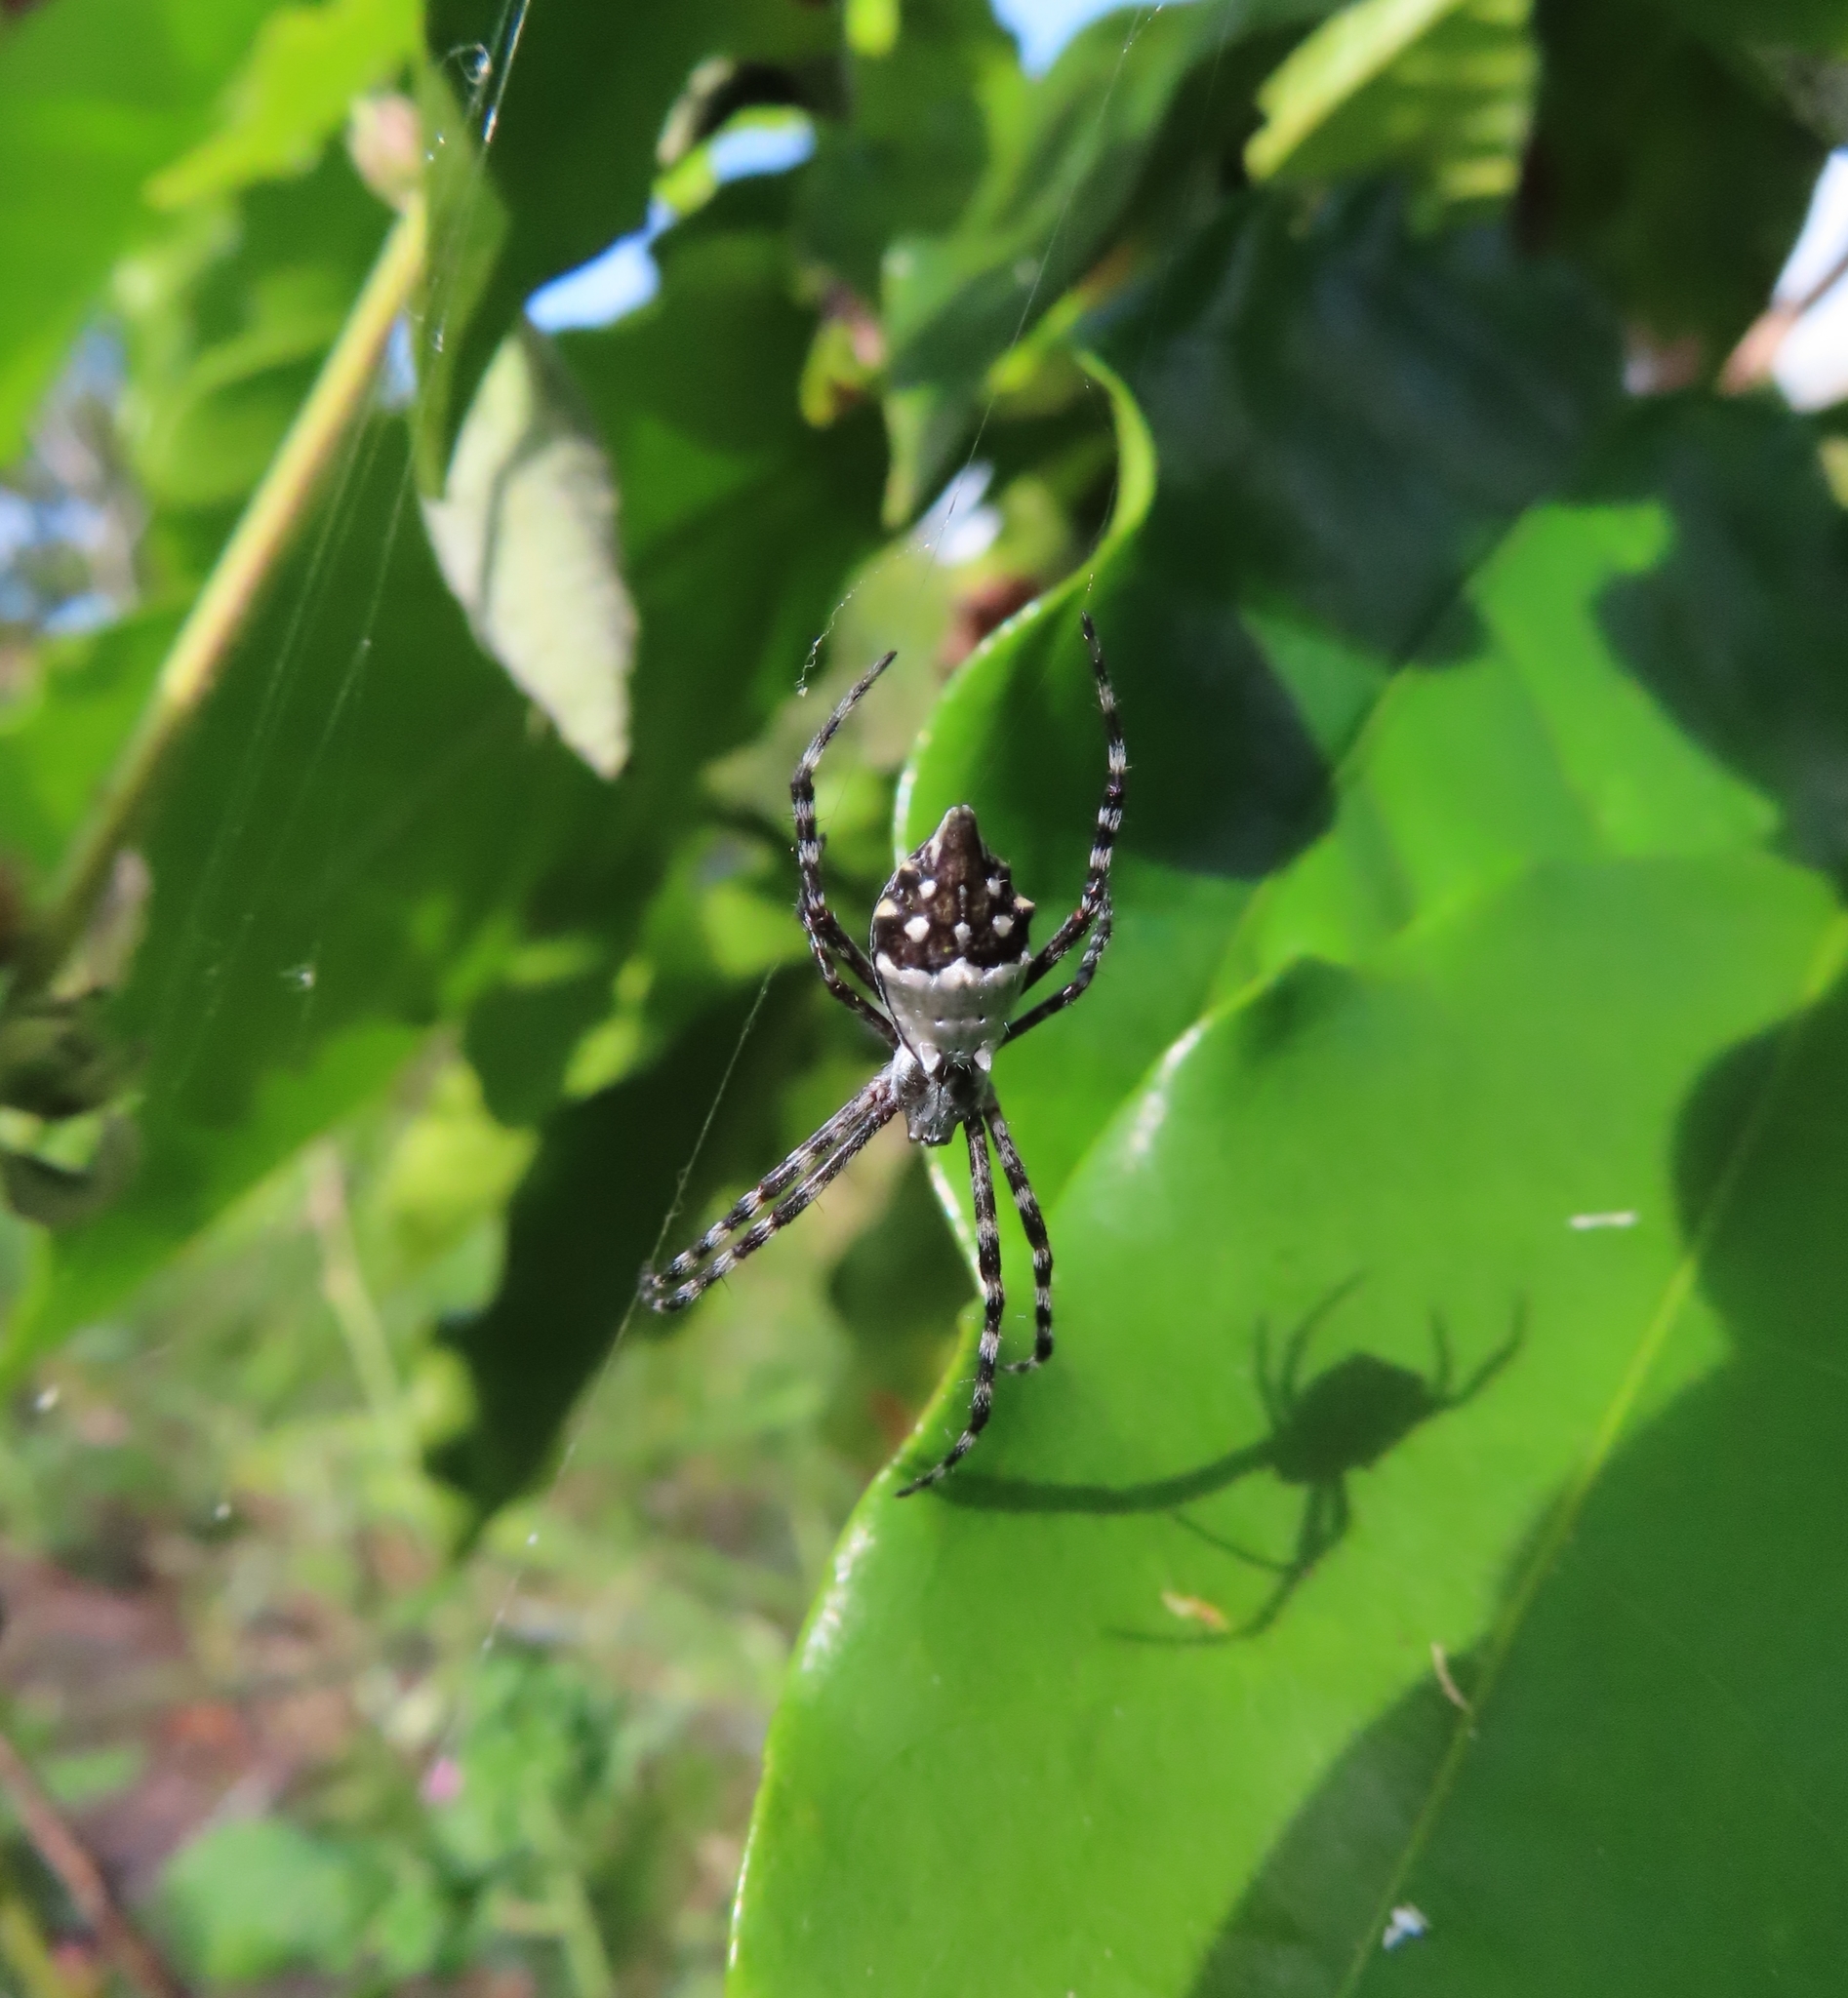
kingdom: Animalia
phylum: Arthropoda
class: Arachnida
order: Araneae
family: Araneidae
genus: Argiope
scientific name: Argiope argentata
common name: Orb weavers
